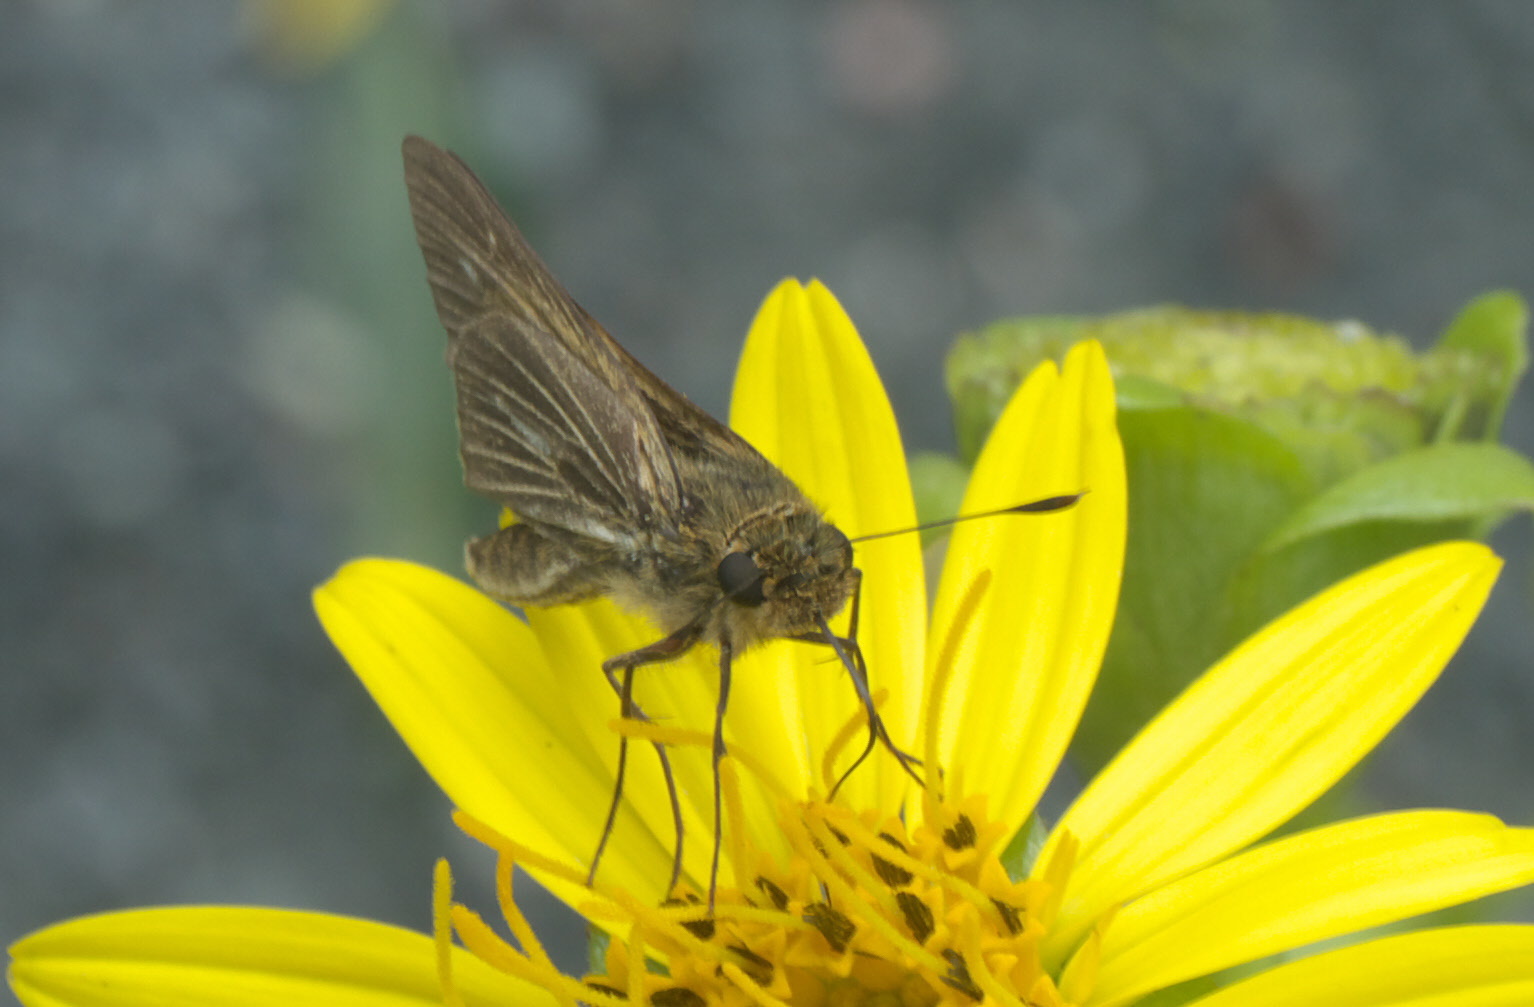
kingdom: Animalia
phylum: Arthropoda
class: Insecta
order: Lepidoptera
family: Hesperiidae
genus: Panoquina
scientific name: Panoquina panoquin
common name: Salt marsh skipper
